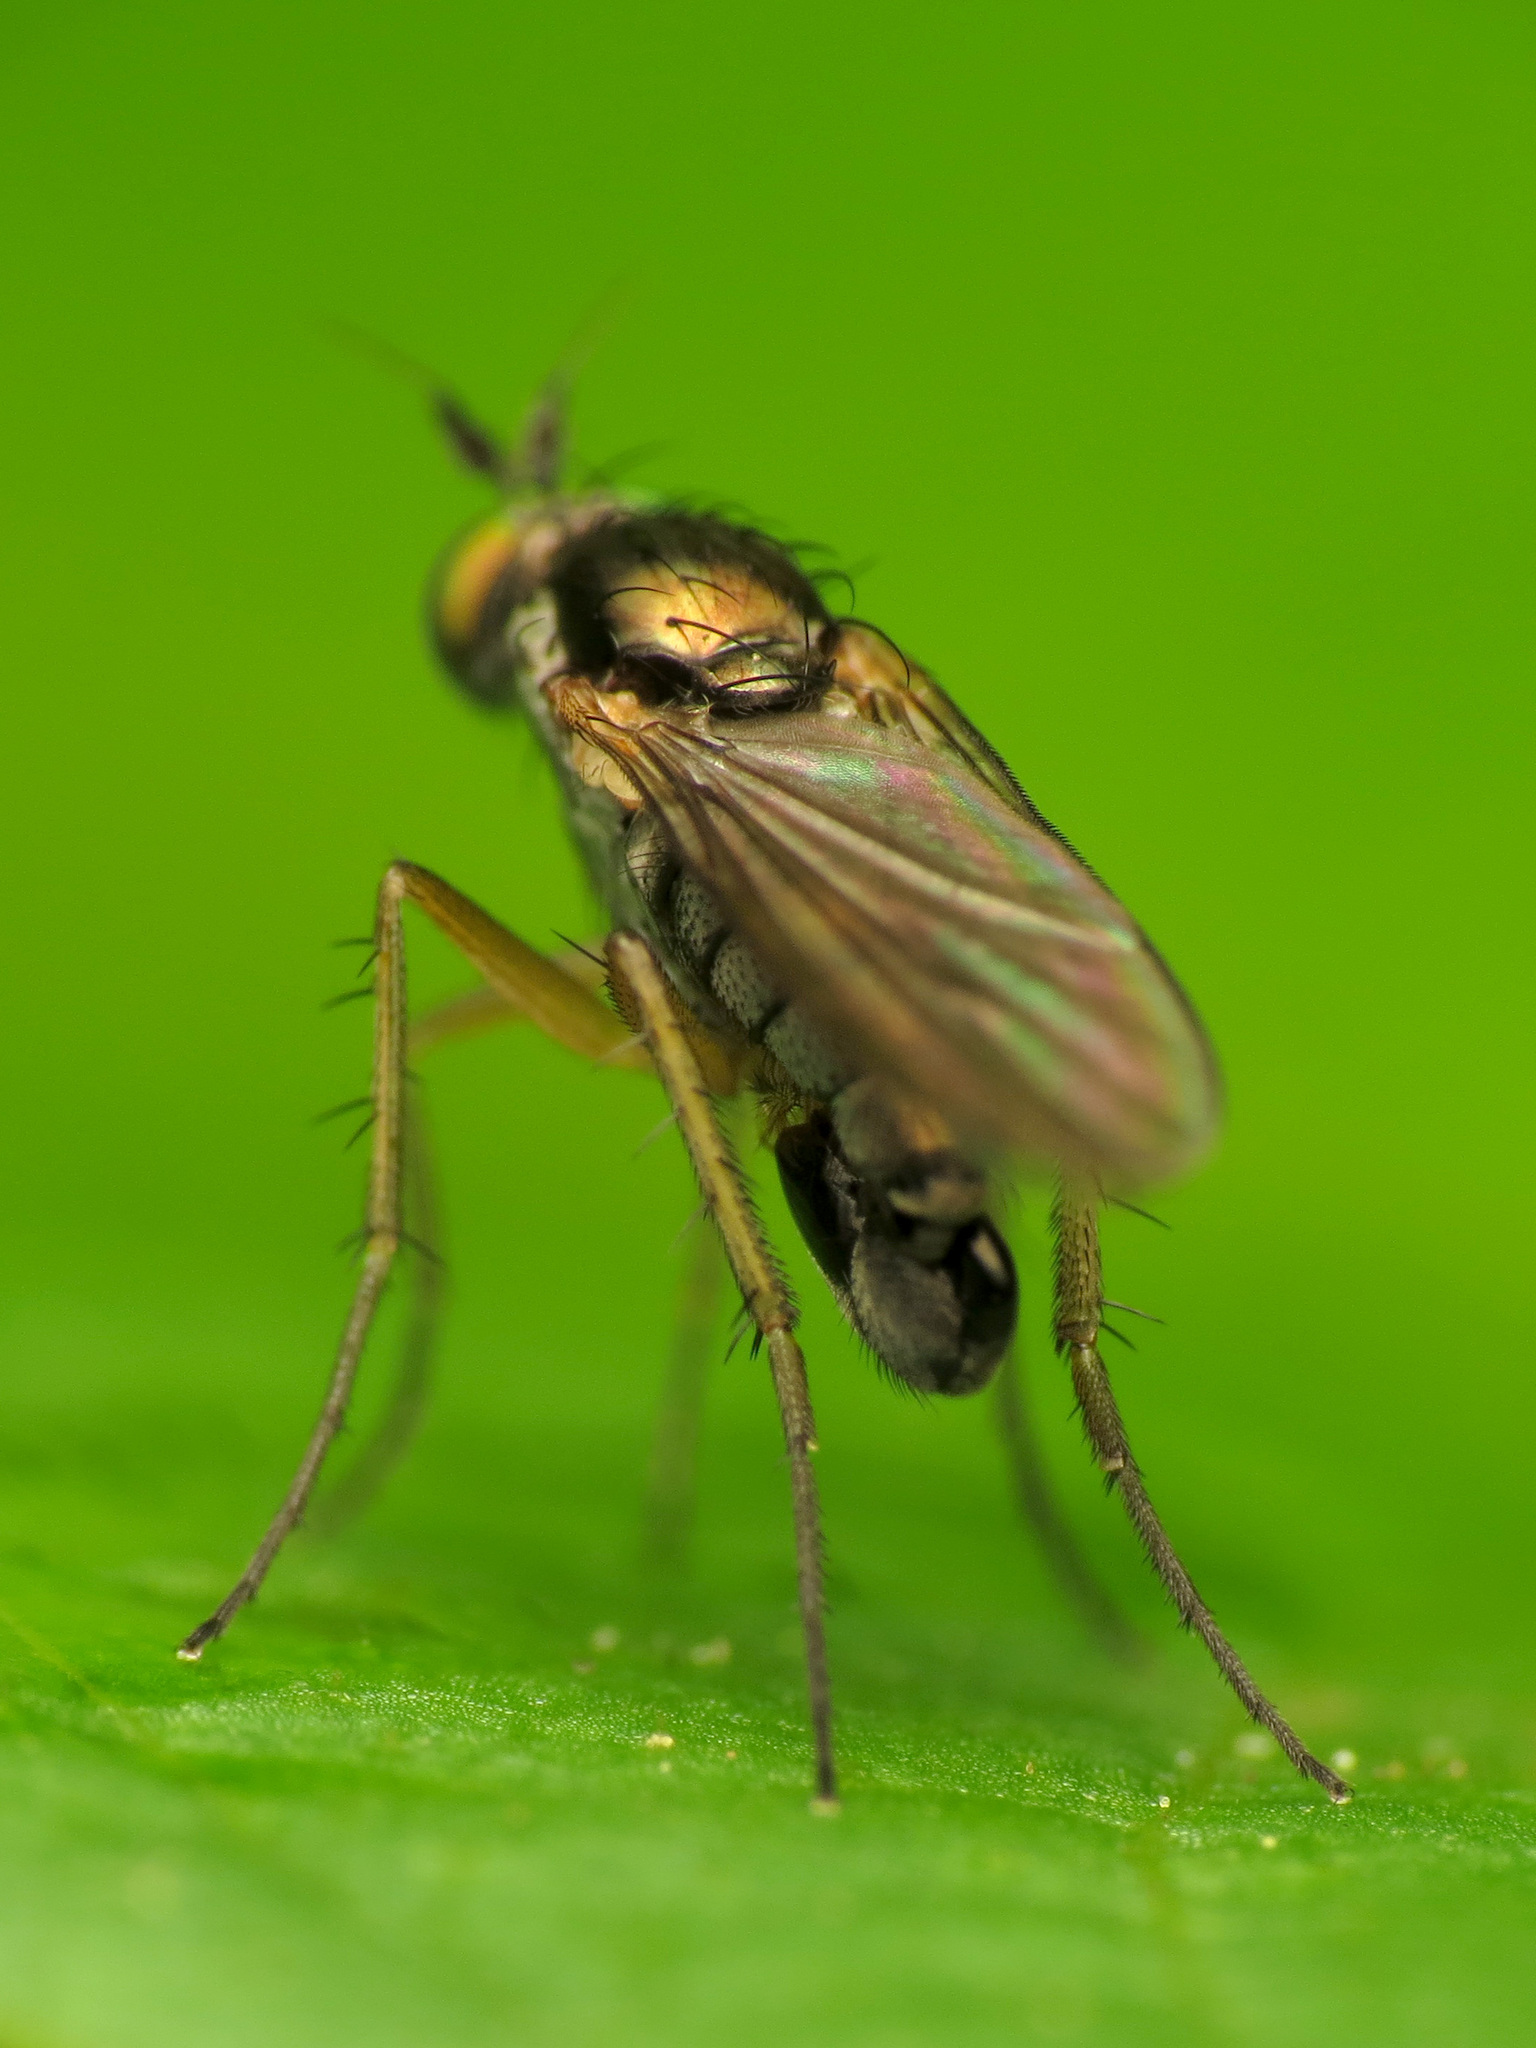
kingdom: Animalia
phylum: Arthropoda
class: Insecta
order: Diptera
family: Dolichopodidae
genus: Gymnopternus
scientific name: Gymnopternus meniscus
